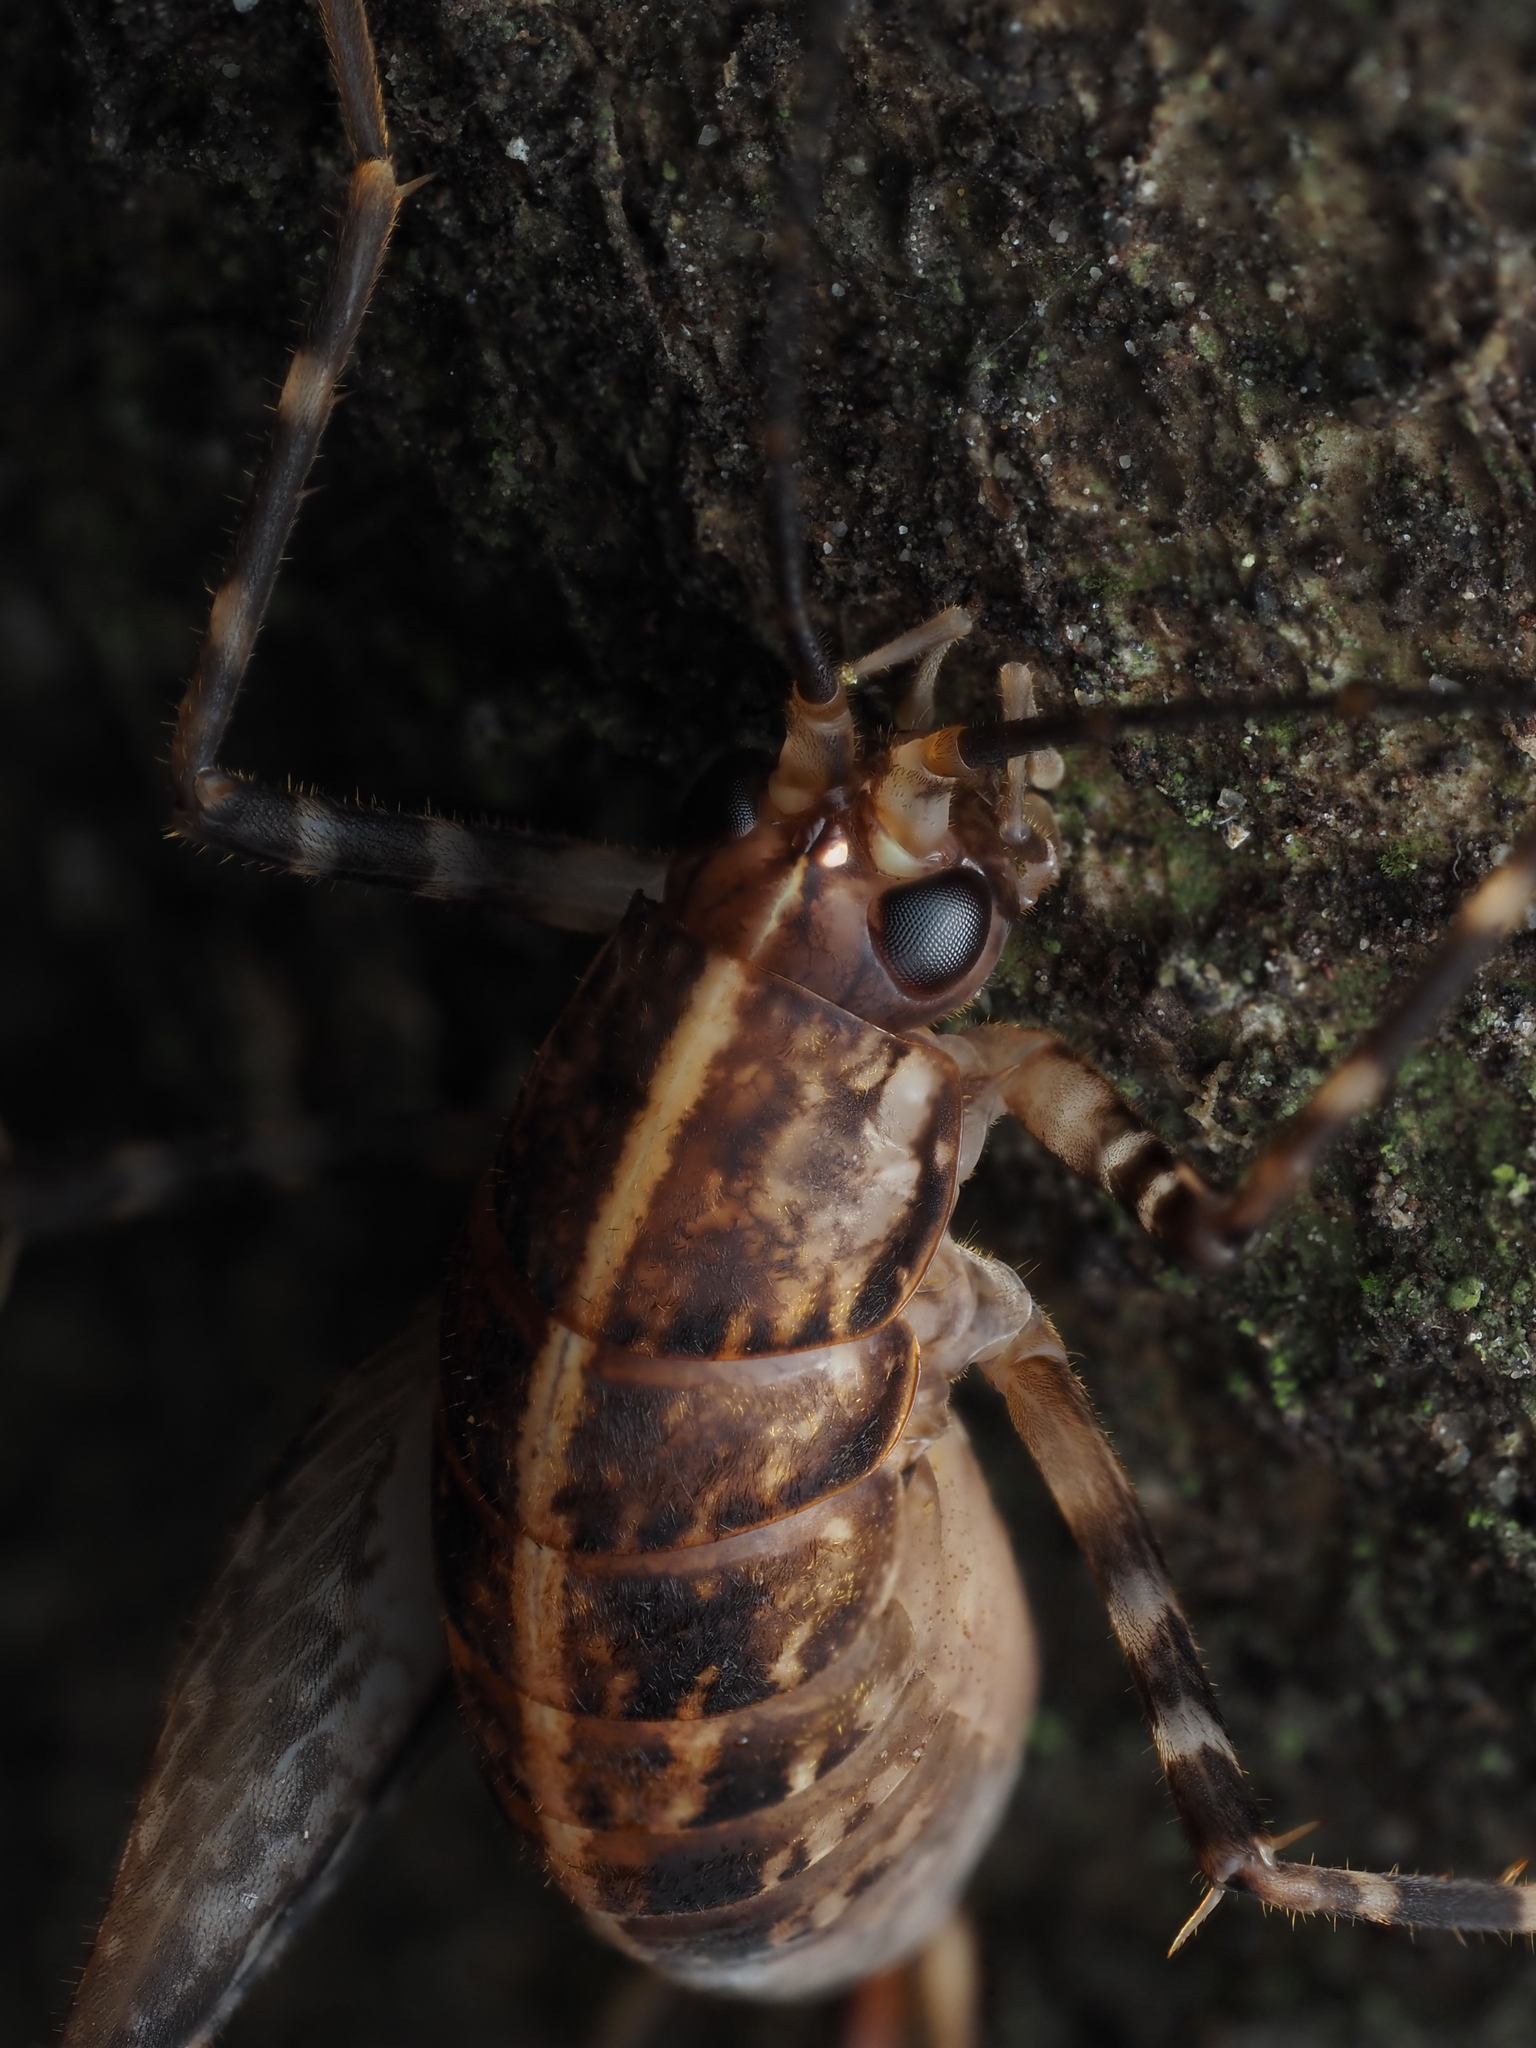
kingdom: Animalia
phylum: Arthropoda
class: Insecta
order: Orthoptera
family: Rhaphidophoridae
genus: Pleioplectron
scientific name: Pleioplectron hudsoni
